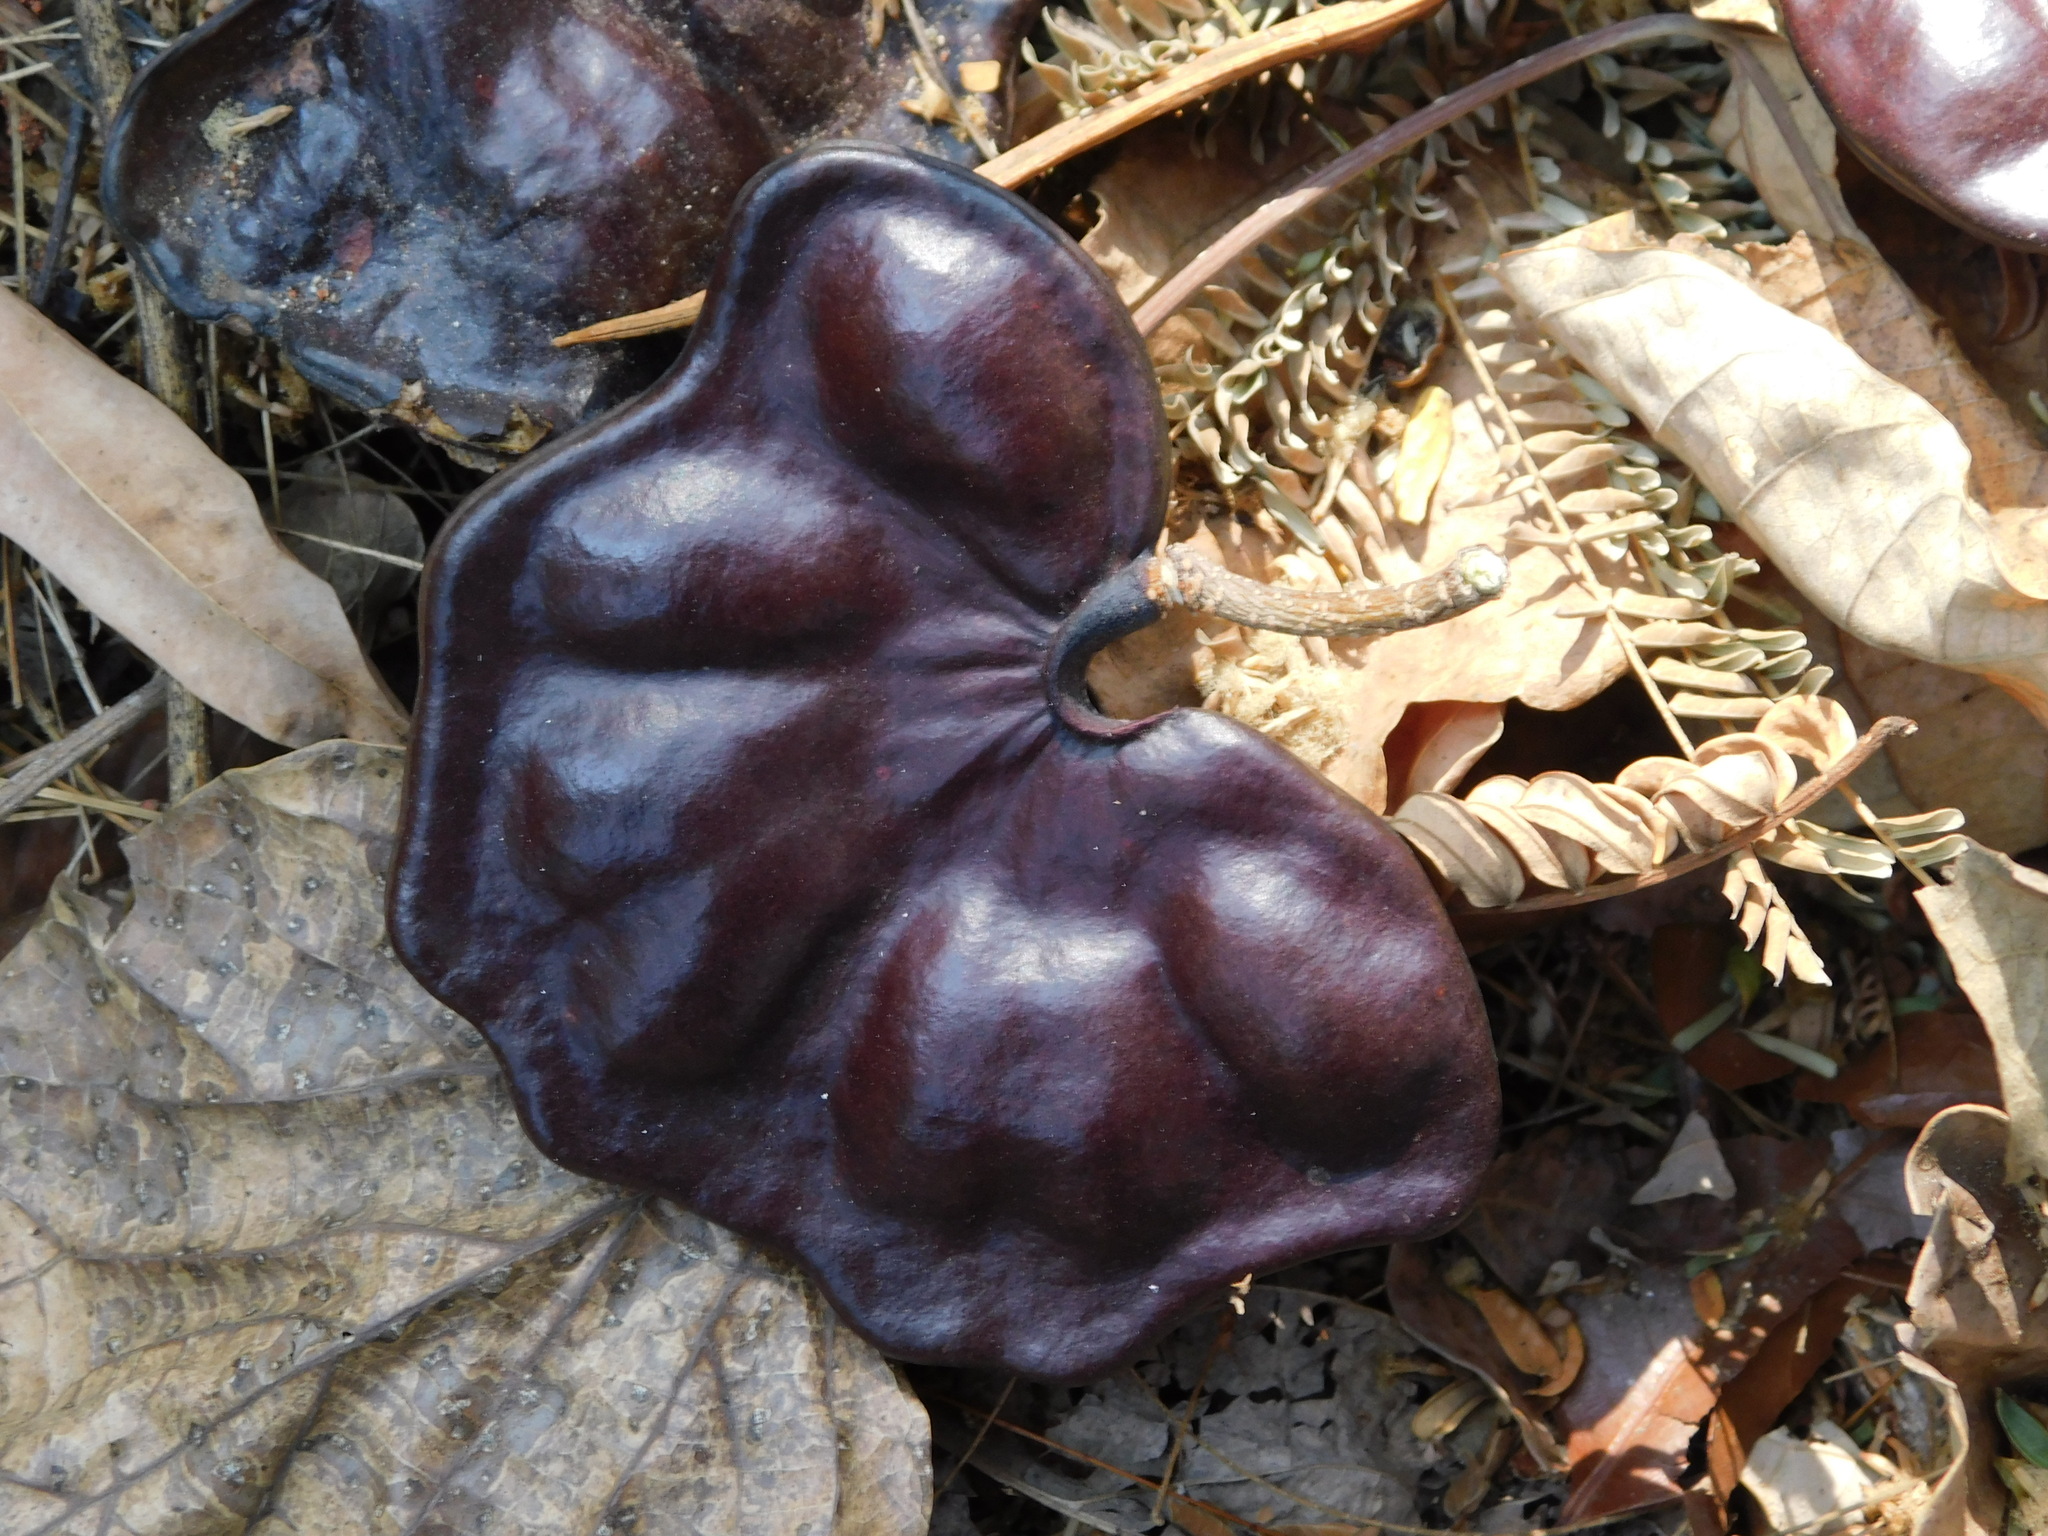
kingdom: Plantae
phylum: Tracheophyta
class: Magnoliopsida
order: Fabales
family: Fabaceae
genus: Enterolobium
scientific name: Enterolobium cyclocarpum
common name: Ear tree
